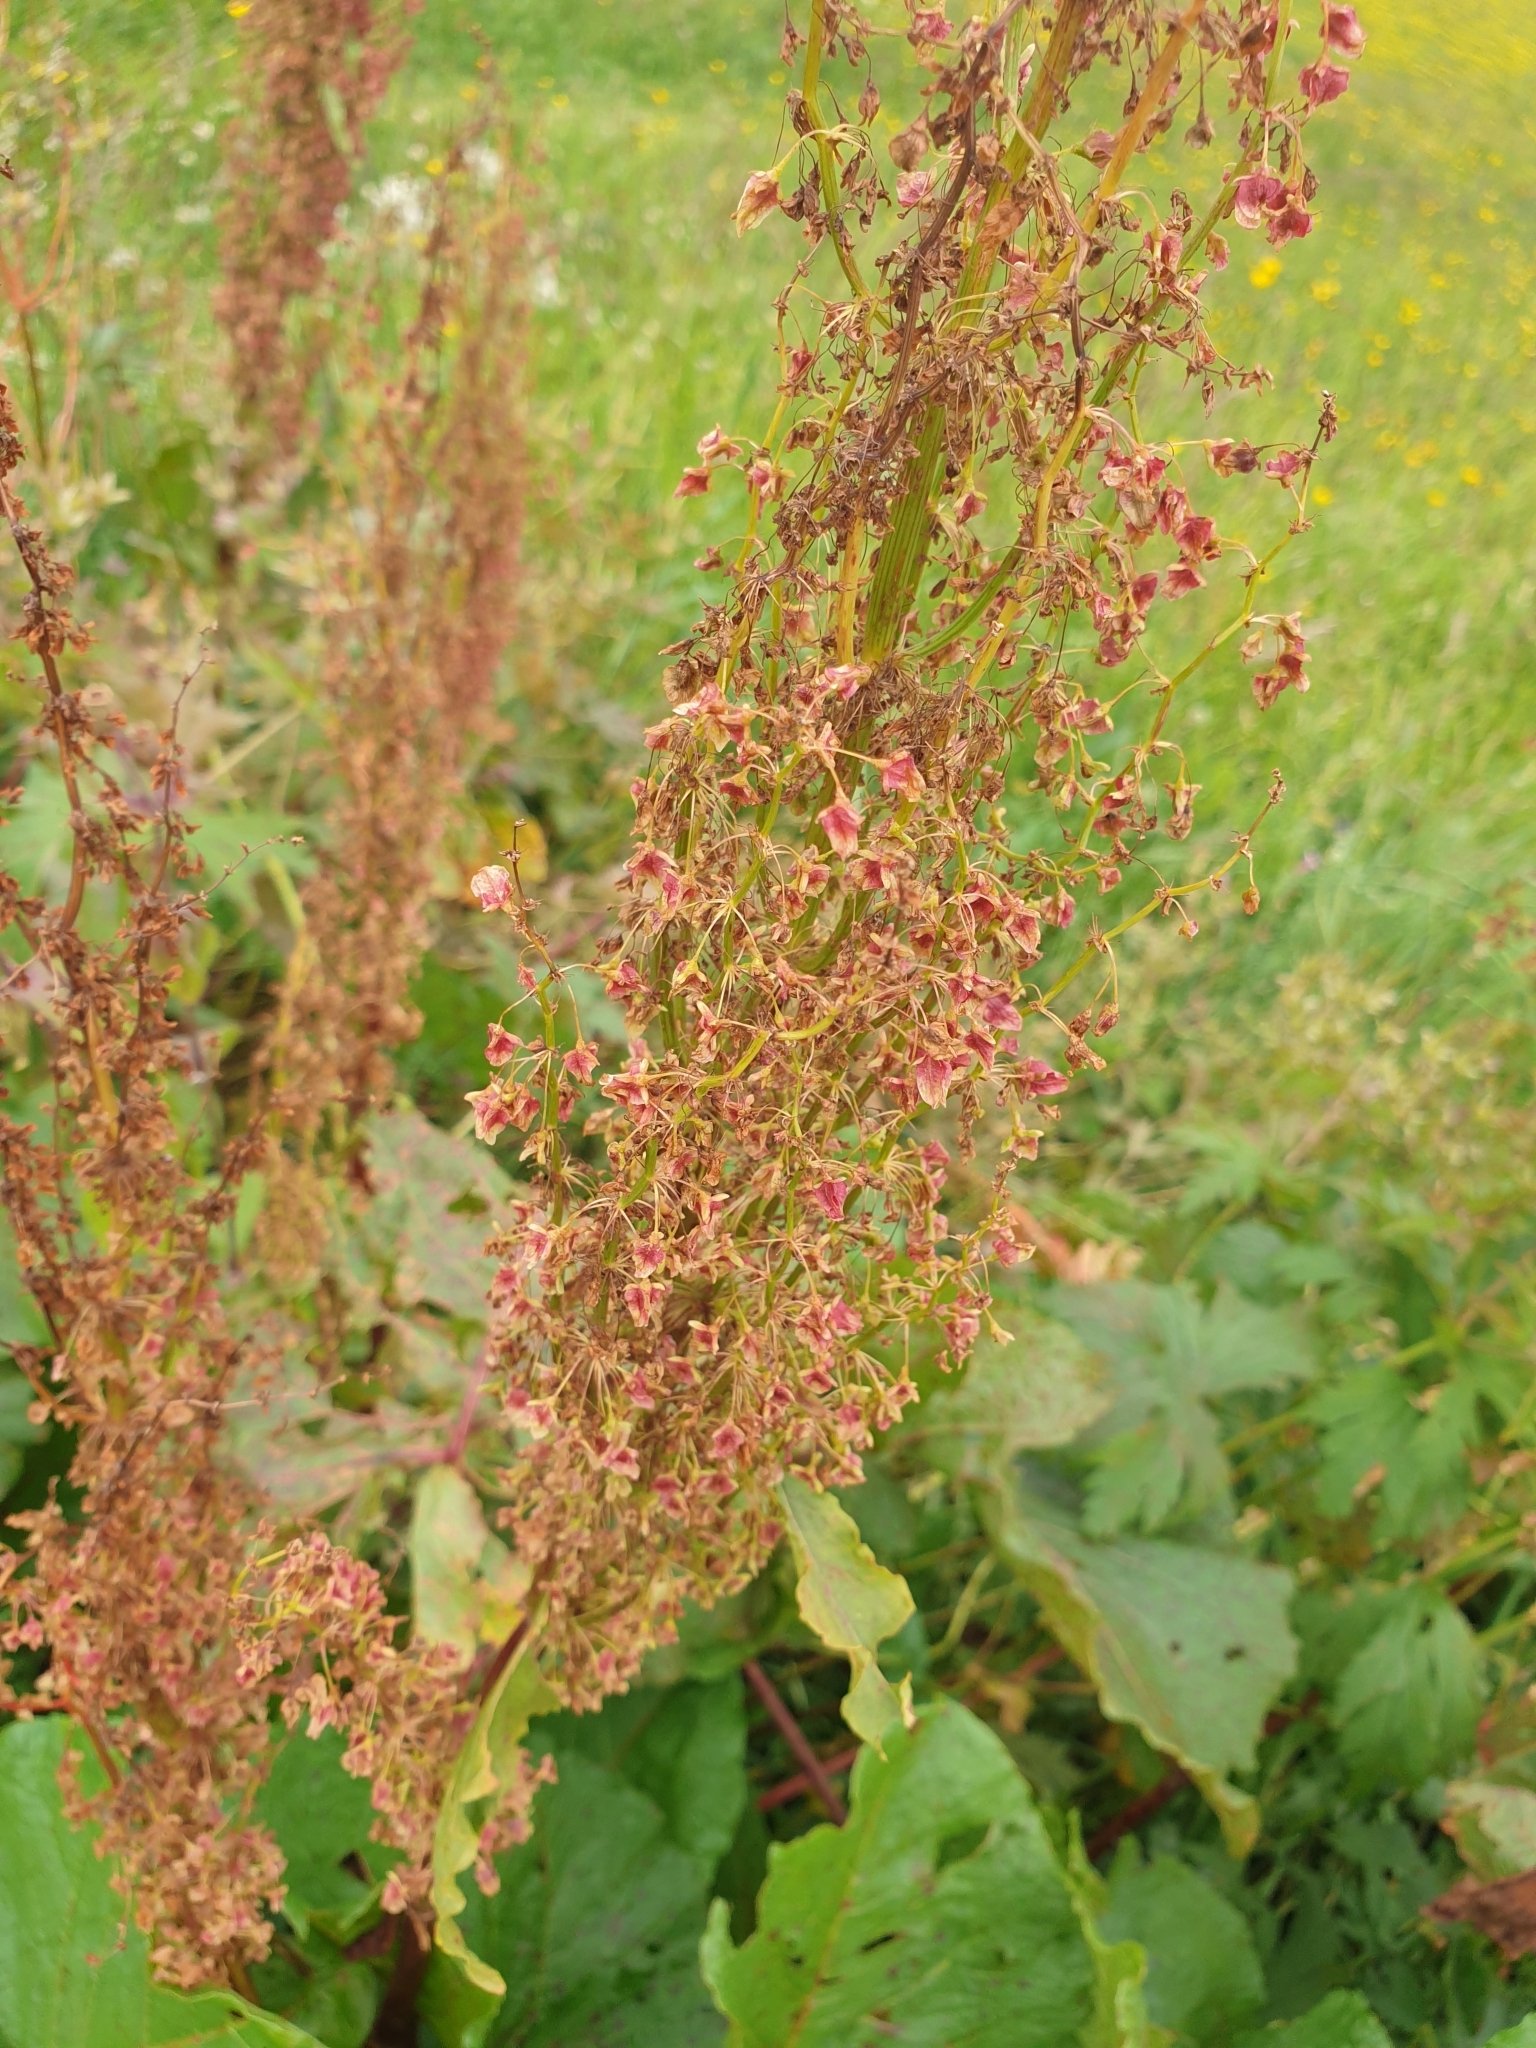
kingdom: Plantae
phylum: Tracheophyta
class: Magnoliopsida
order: Caryophyllales
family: Polygonaceae
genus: Rumex
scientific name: Rumex alpinus
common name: Alpine dock
